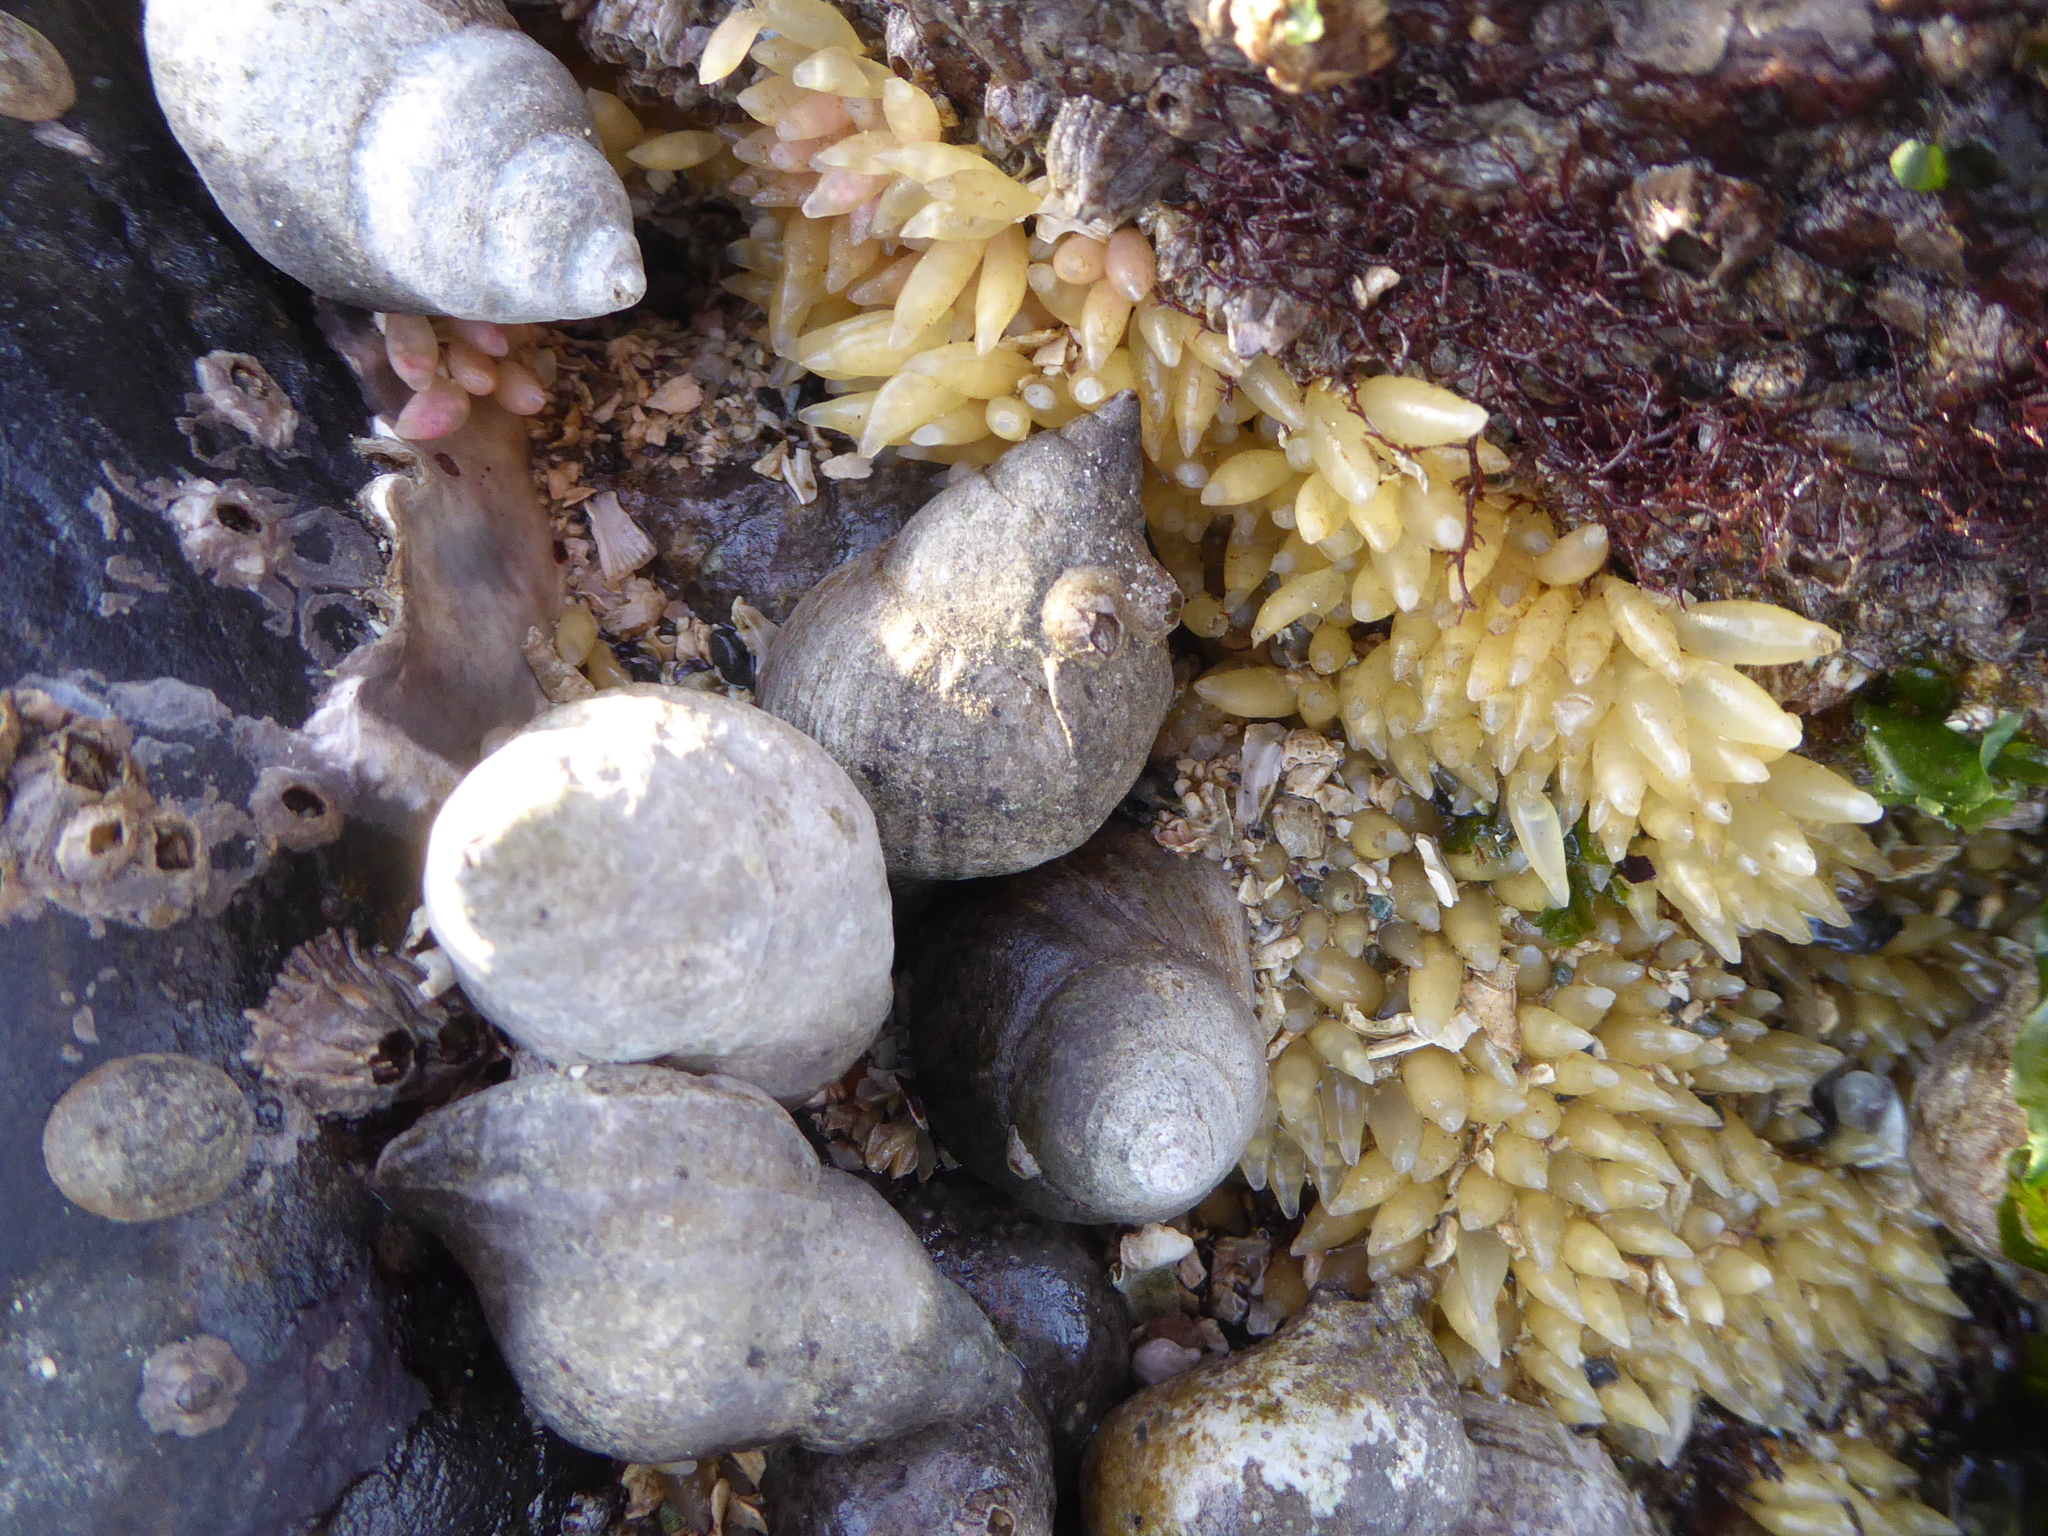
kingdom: Animalia
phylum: Mollusca
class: Gastropoda
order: Neogastropoda
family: Muricidae
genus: Nucella
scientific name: Nucella lamellosa
